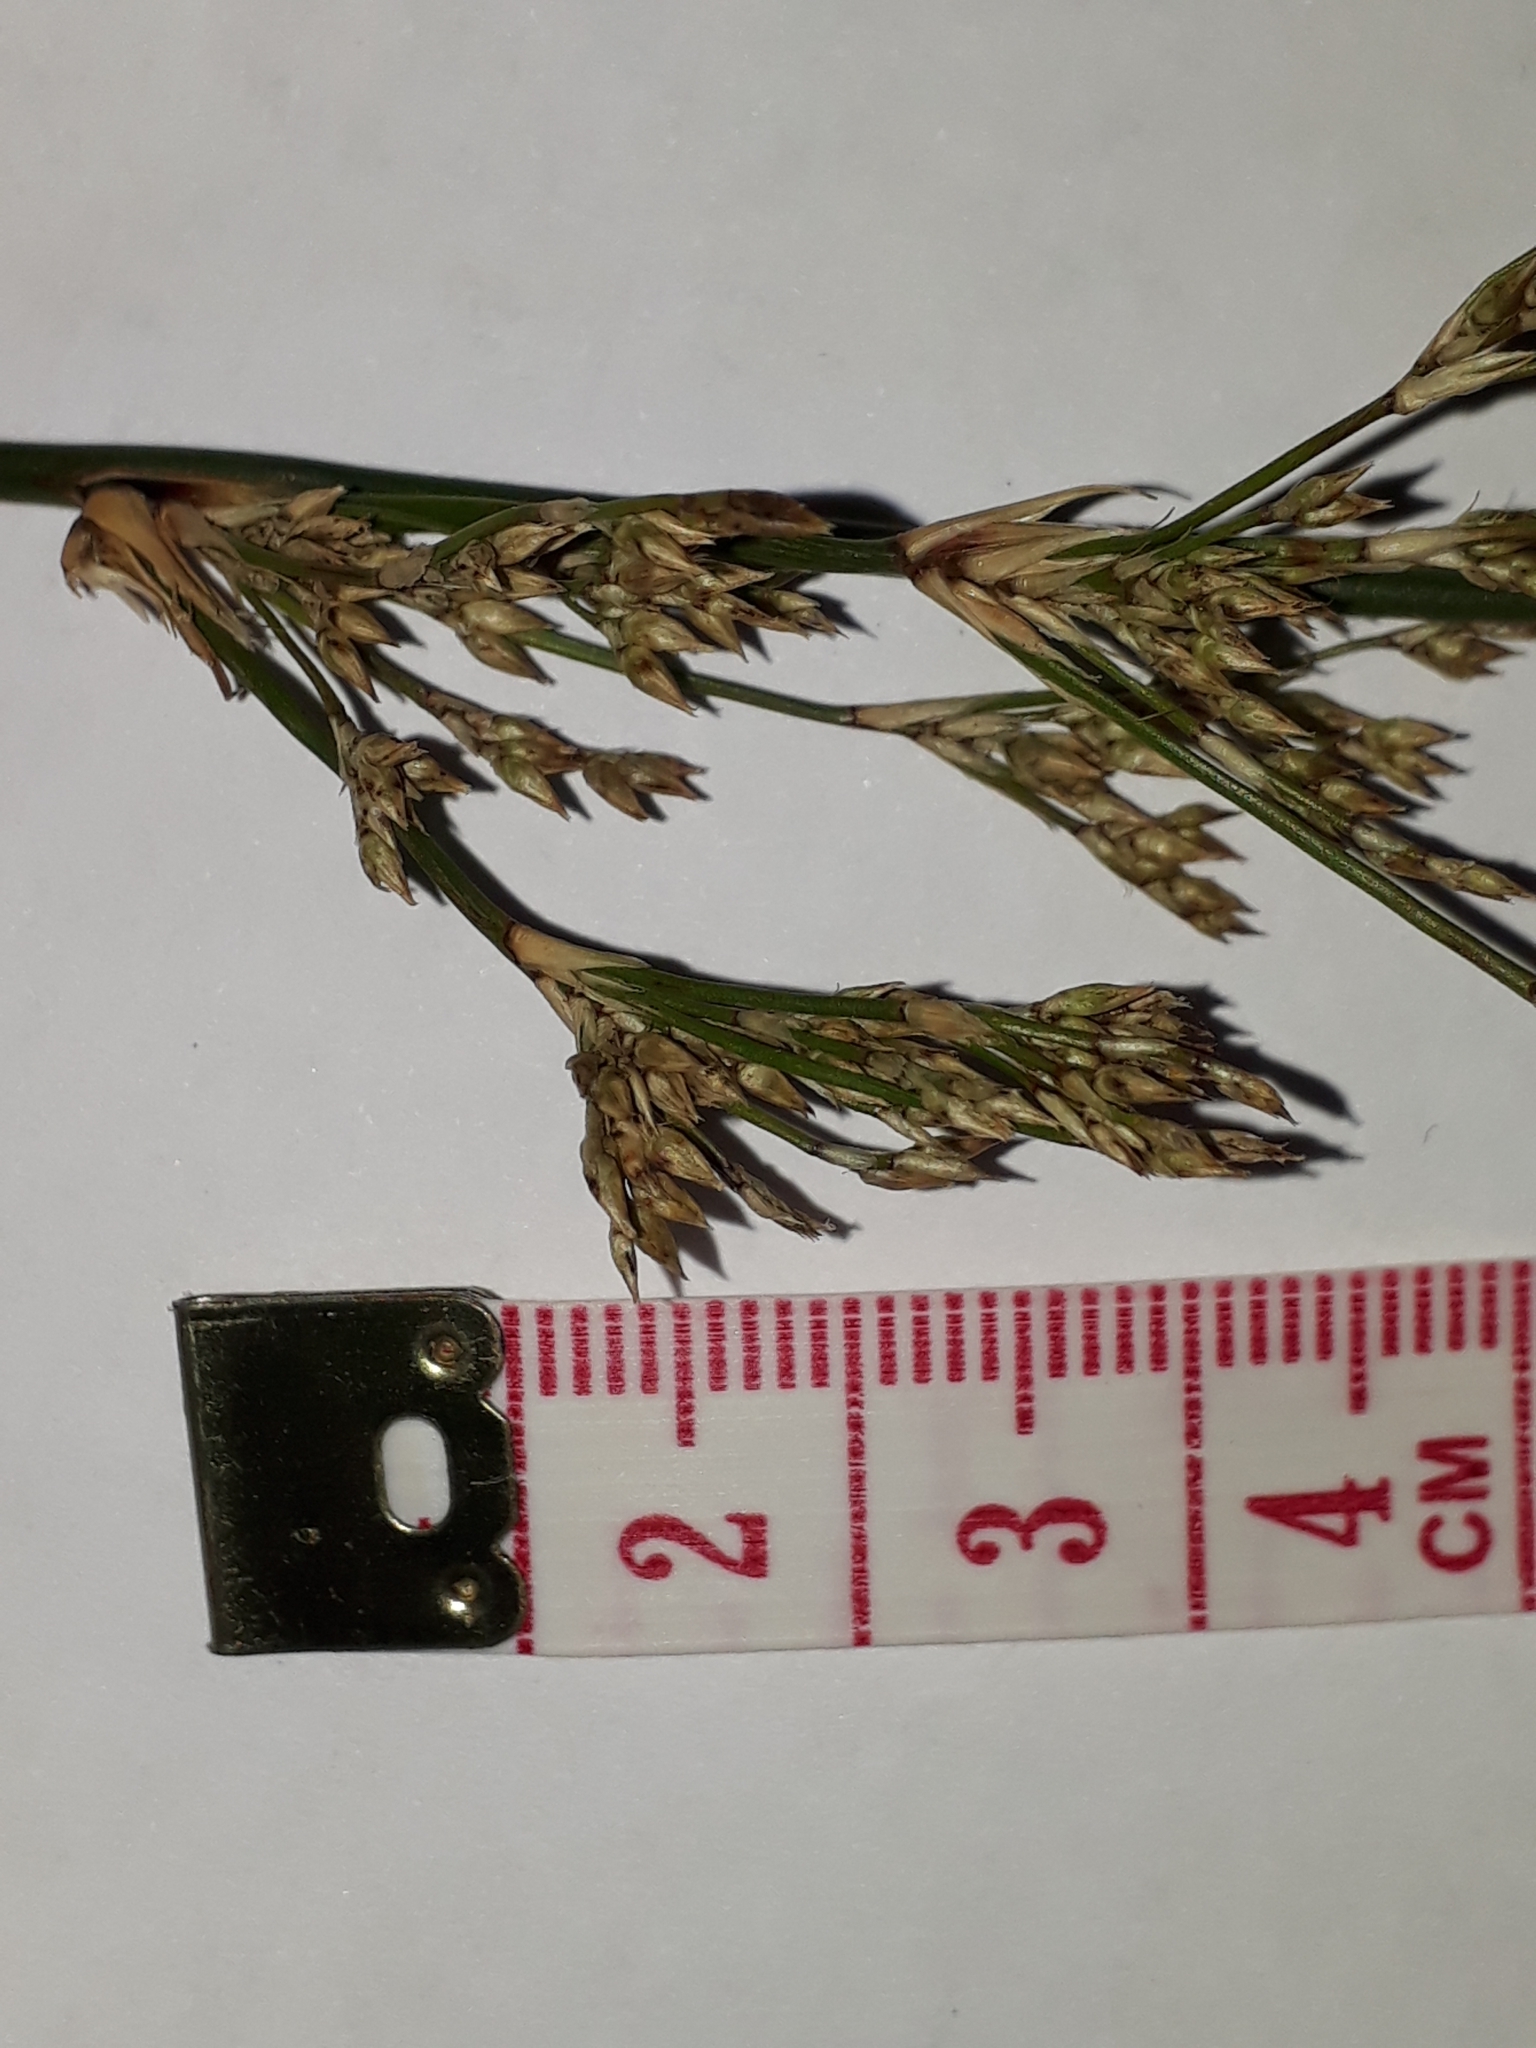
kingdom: Plantae
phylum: Tracheophyta
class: Liliopsida
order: Poales
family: Juncaceae
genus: Juncus
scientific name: Juncus sarophorus
